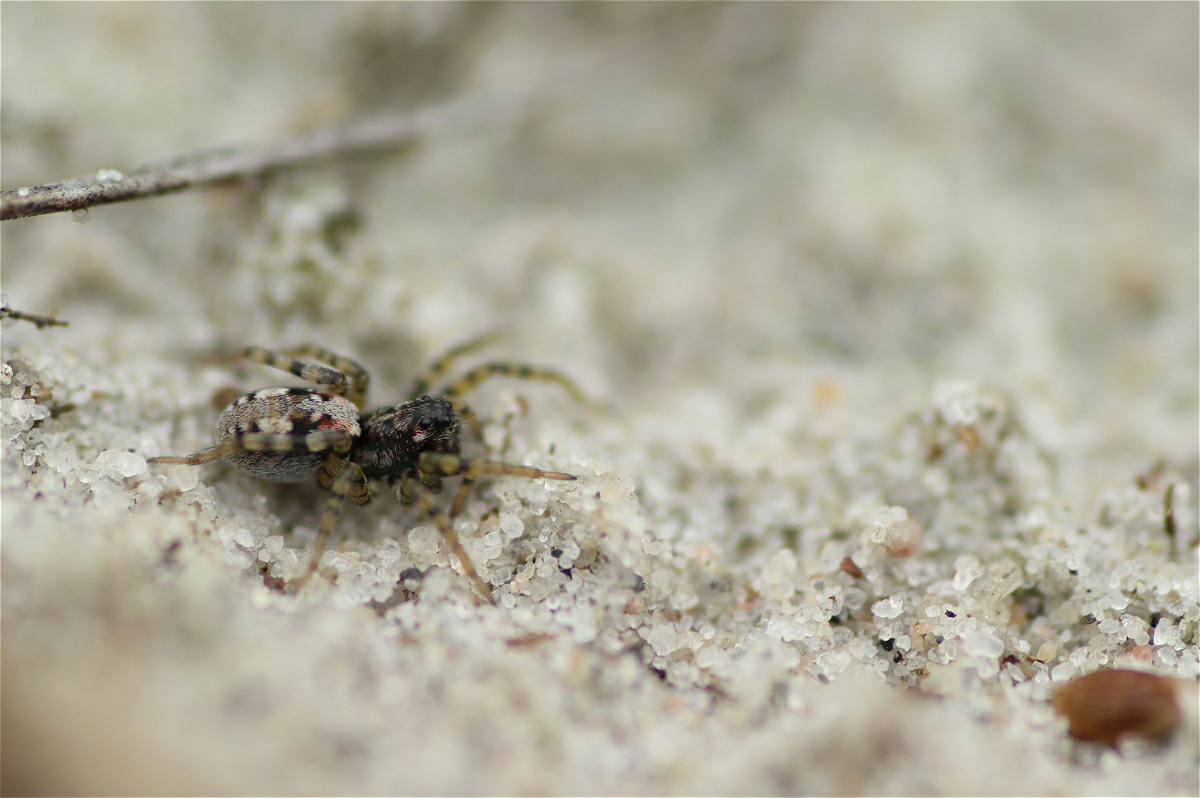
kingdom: Animalia
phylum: Arthropoda
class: Arachnida
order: Araneae
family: Lycosidae
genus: Arctosa
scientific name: Arctosa perita
